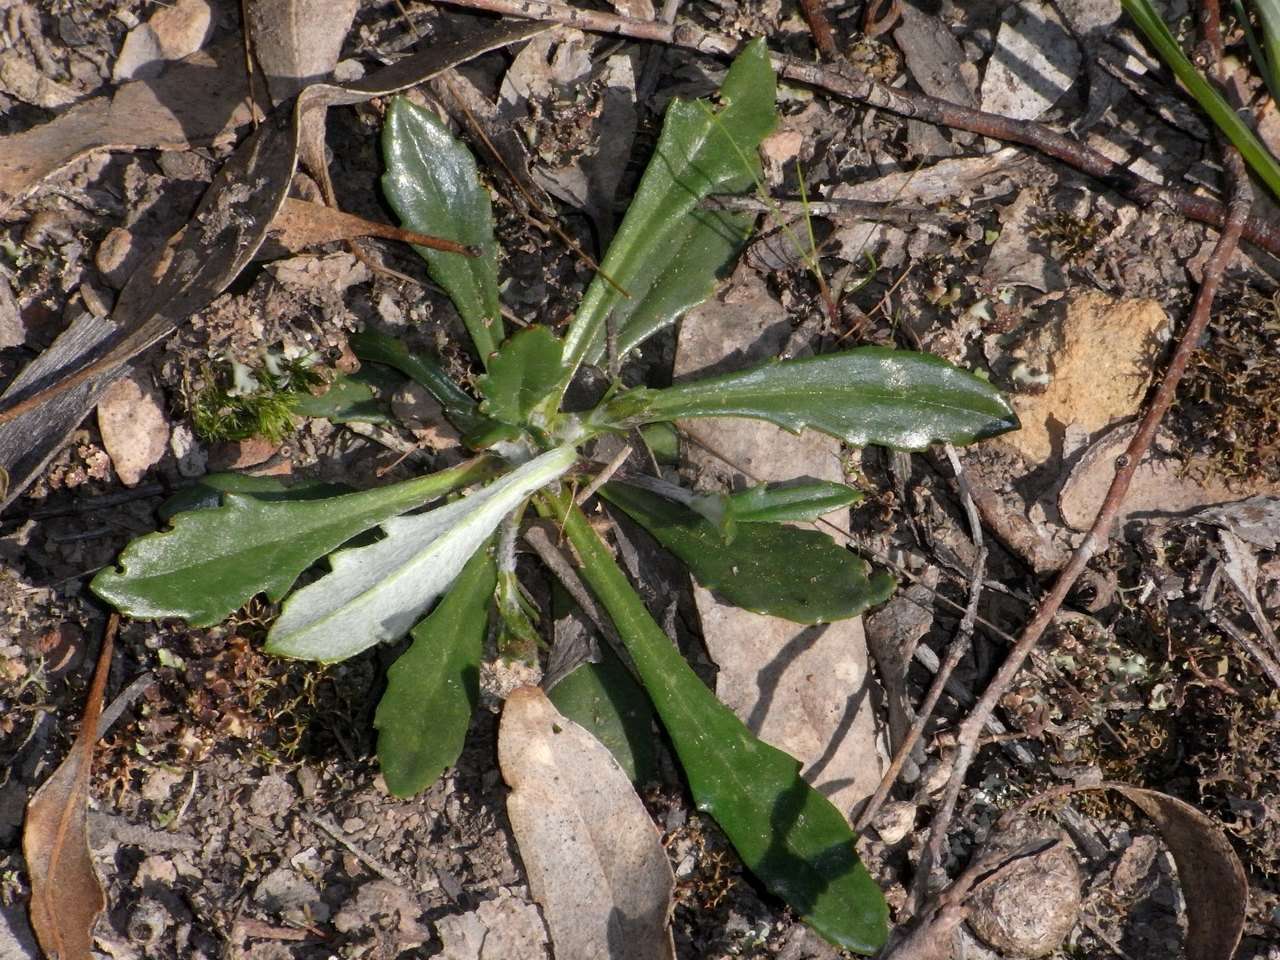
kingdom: Plantae
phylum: Tracheophyta
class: Magnoliopsida
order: Asterales
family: Goodeniaceae
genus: Goodenia
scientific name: Goodenia blackiana
